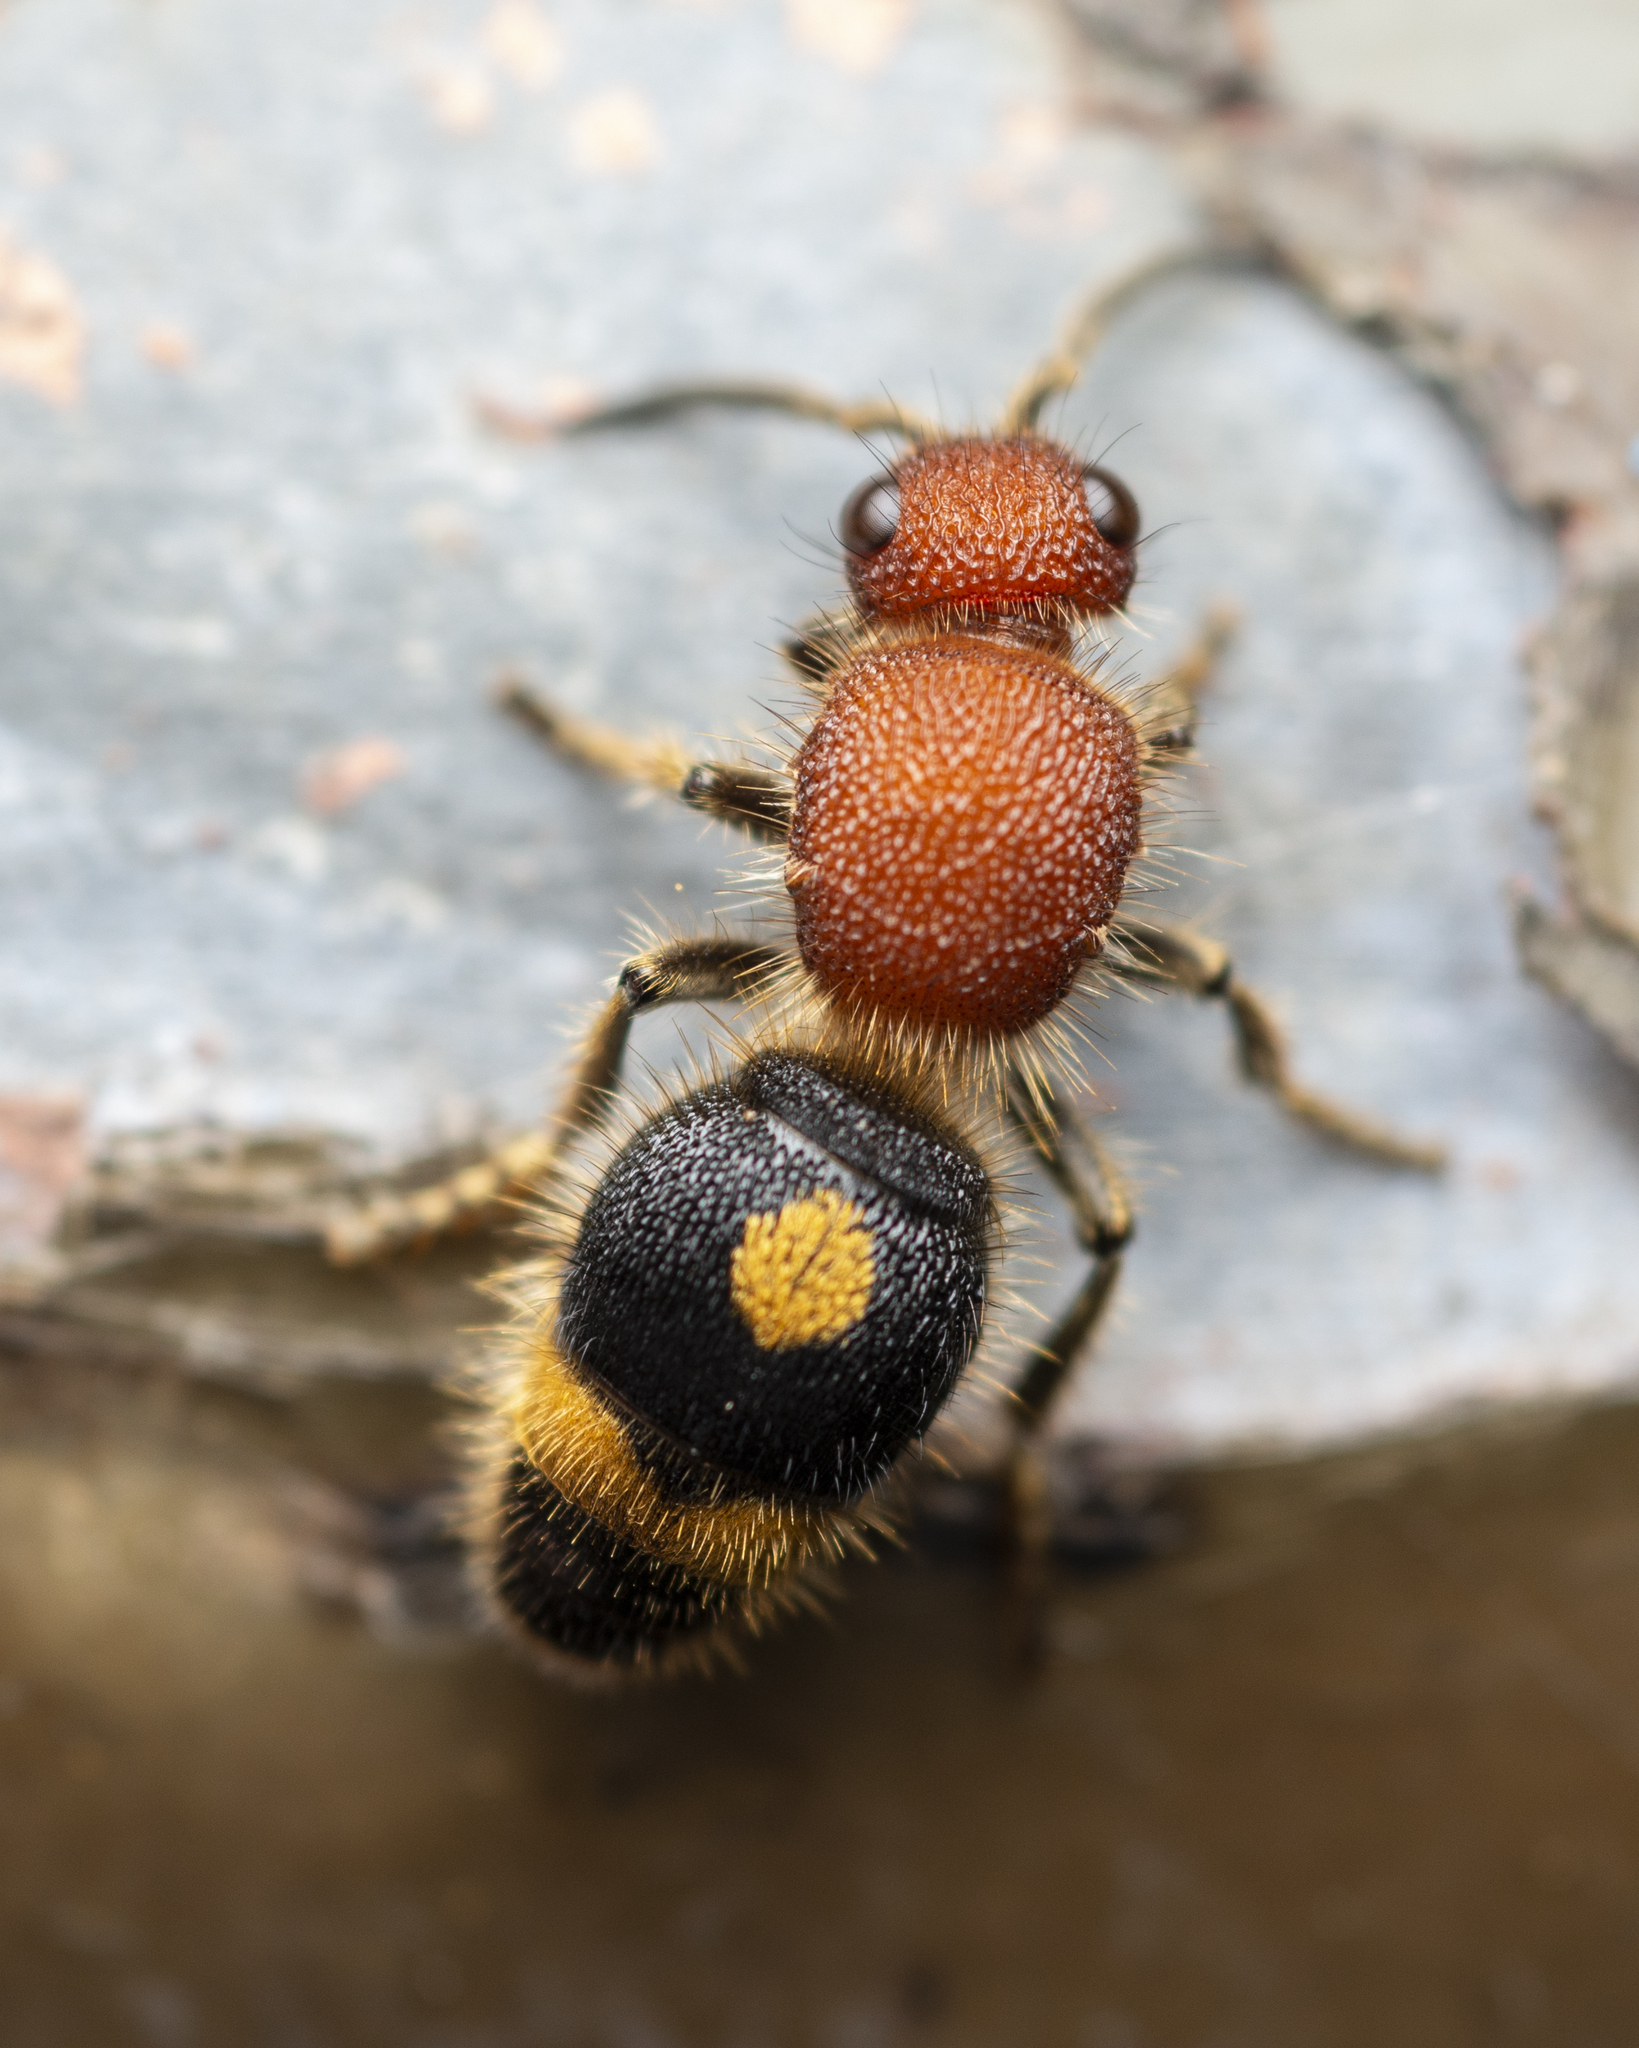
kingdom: Animalia
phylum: Arthropoda
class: Insecta
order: Hymenoptera
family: Mutillidae
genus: Odontomutilla
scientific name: Odontomutilla uranioides
